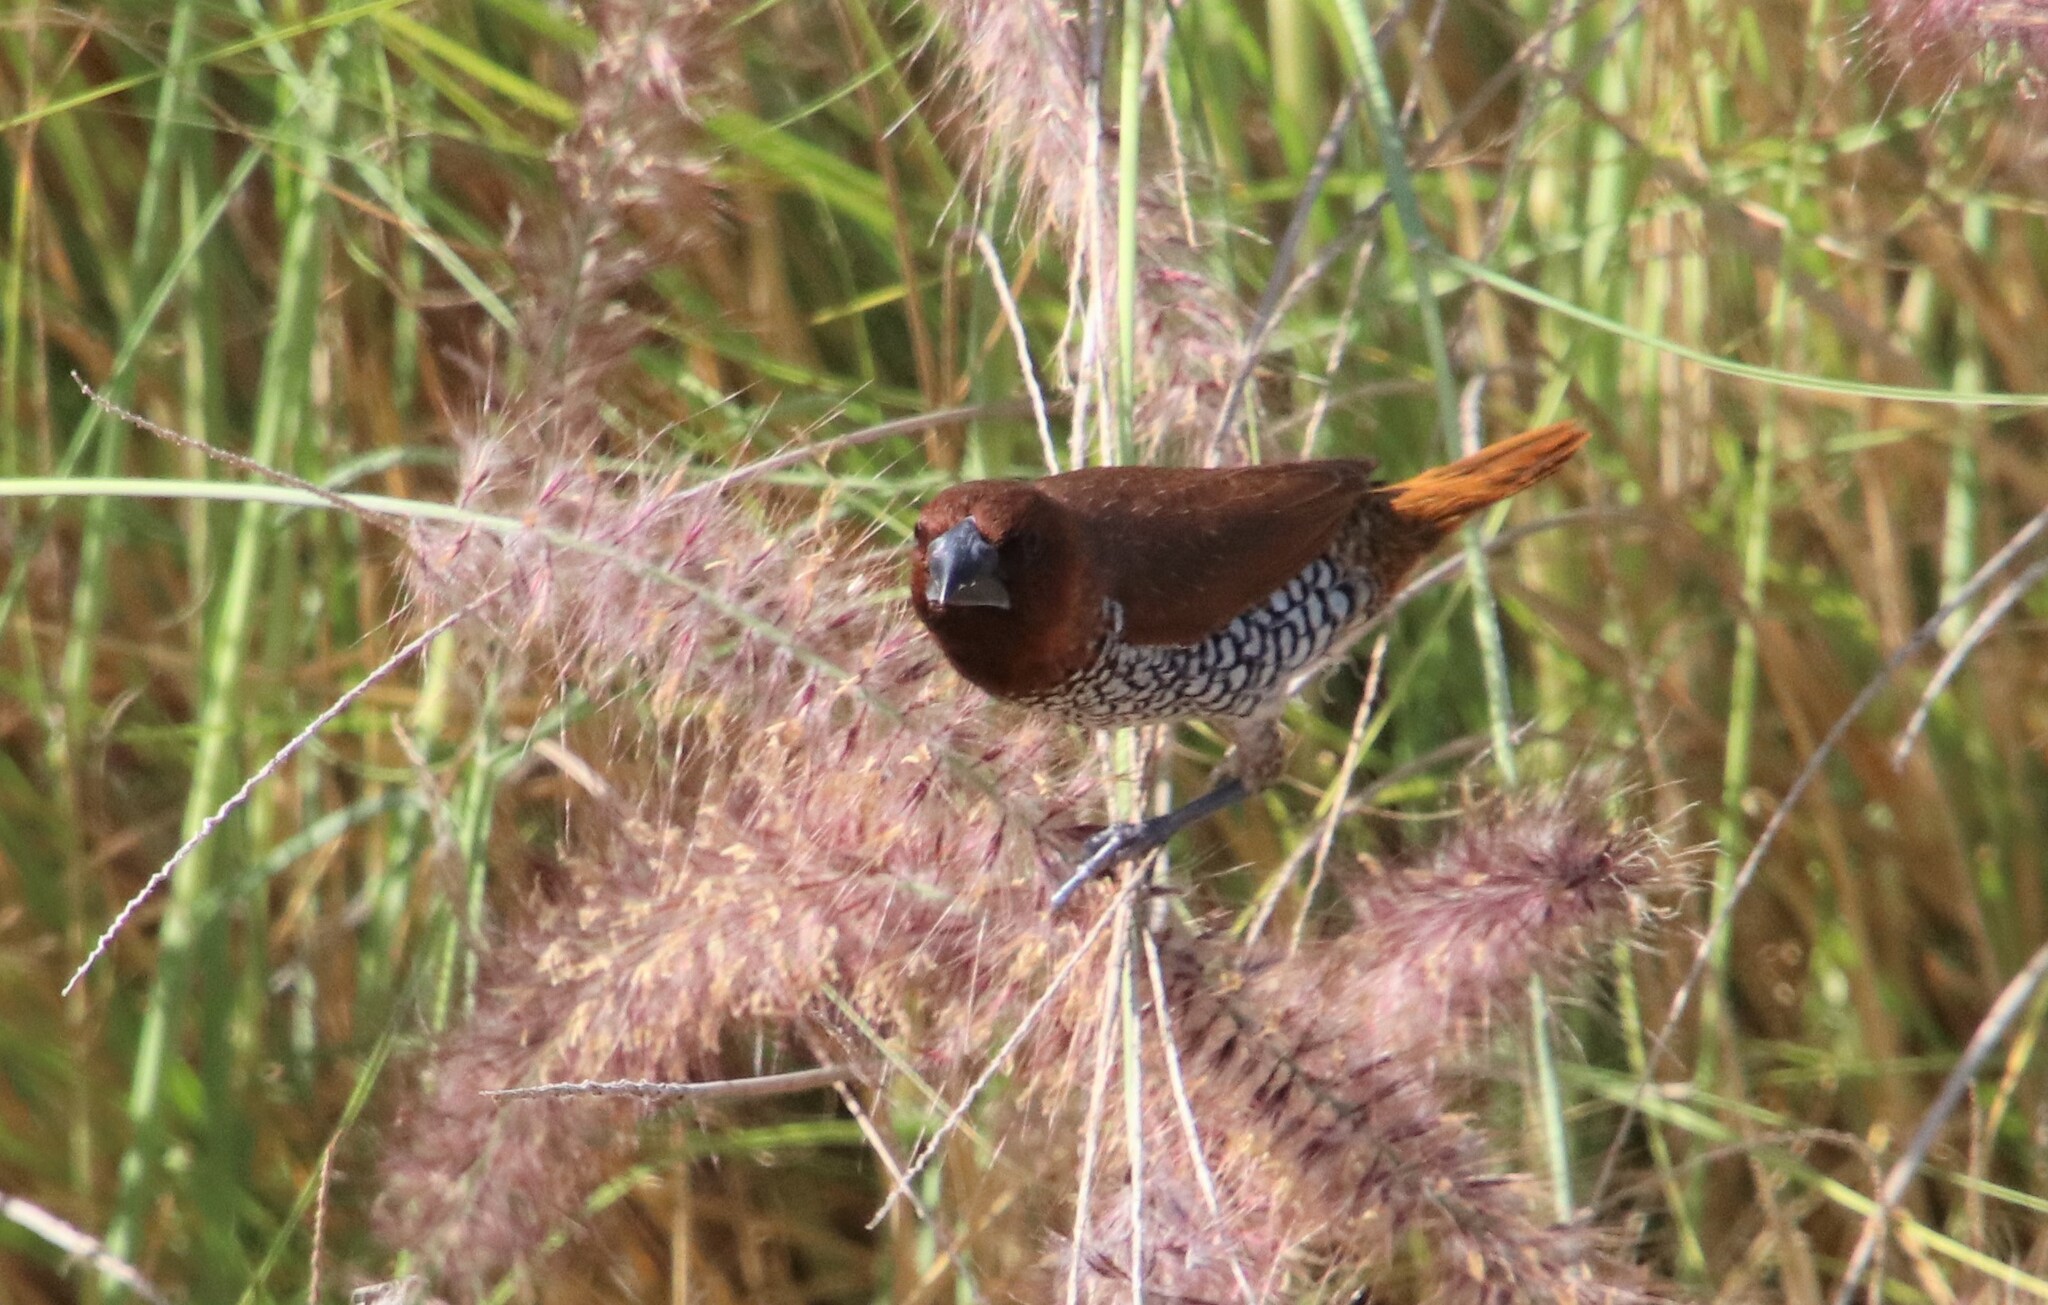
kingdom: Animalia
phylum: Chordata
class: Aves
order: Passeriformes
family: Estrildidae
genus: Lonchura
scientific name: Lonchura punctulata
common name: Scaly-breasted munia
